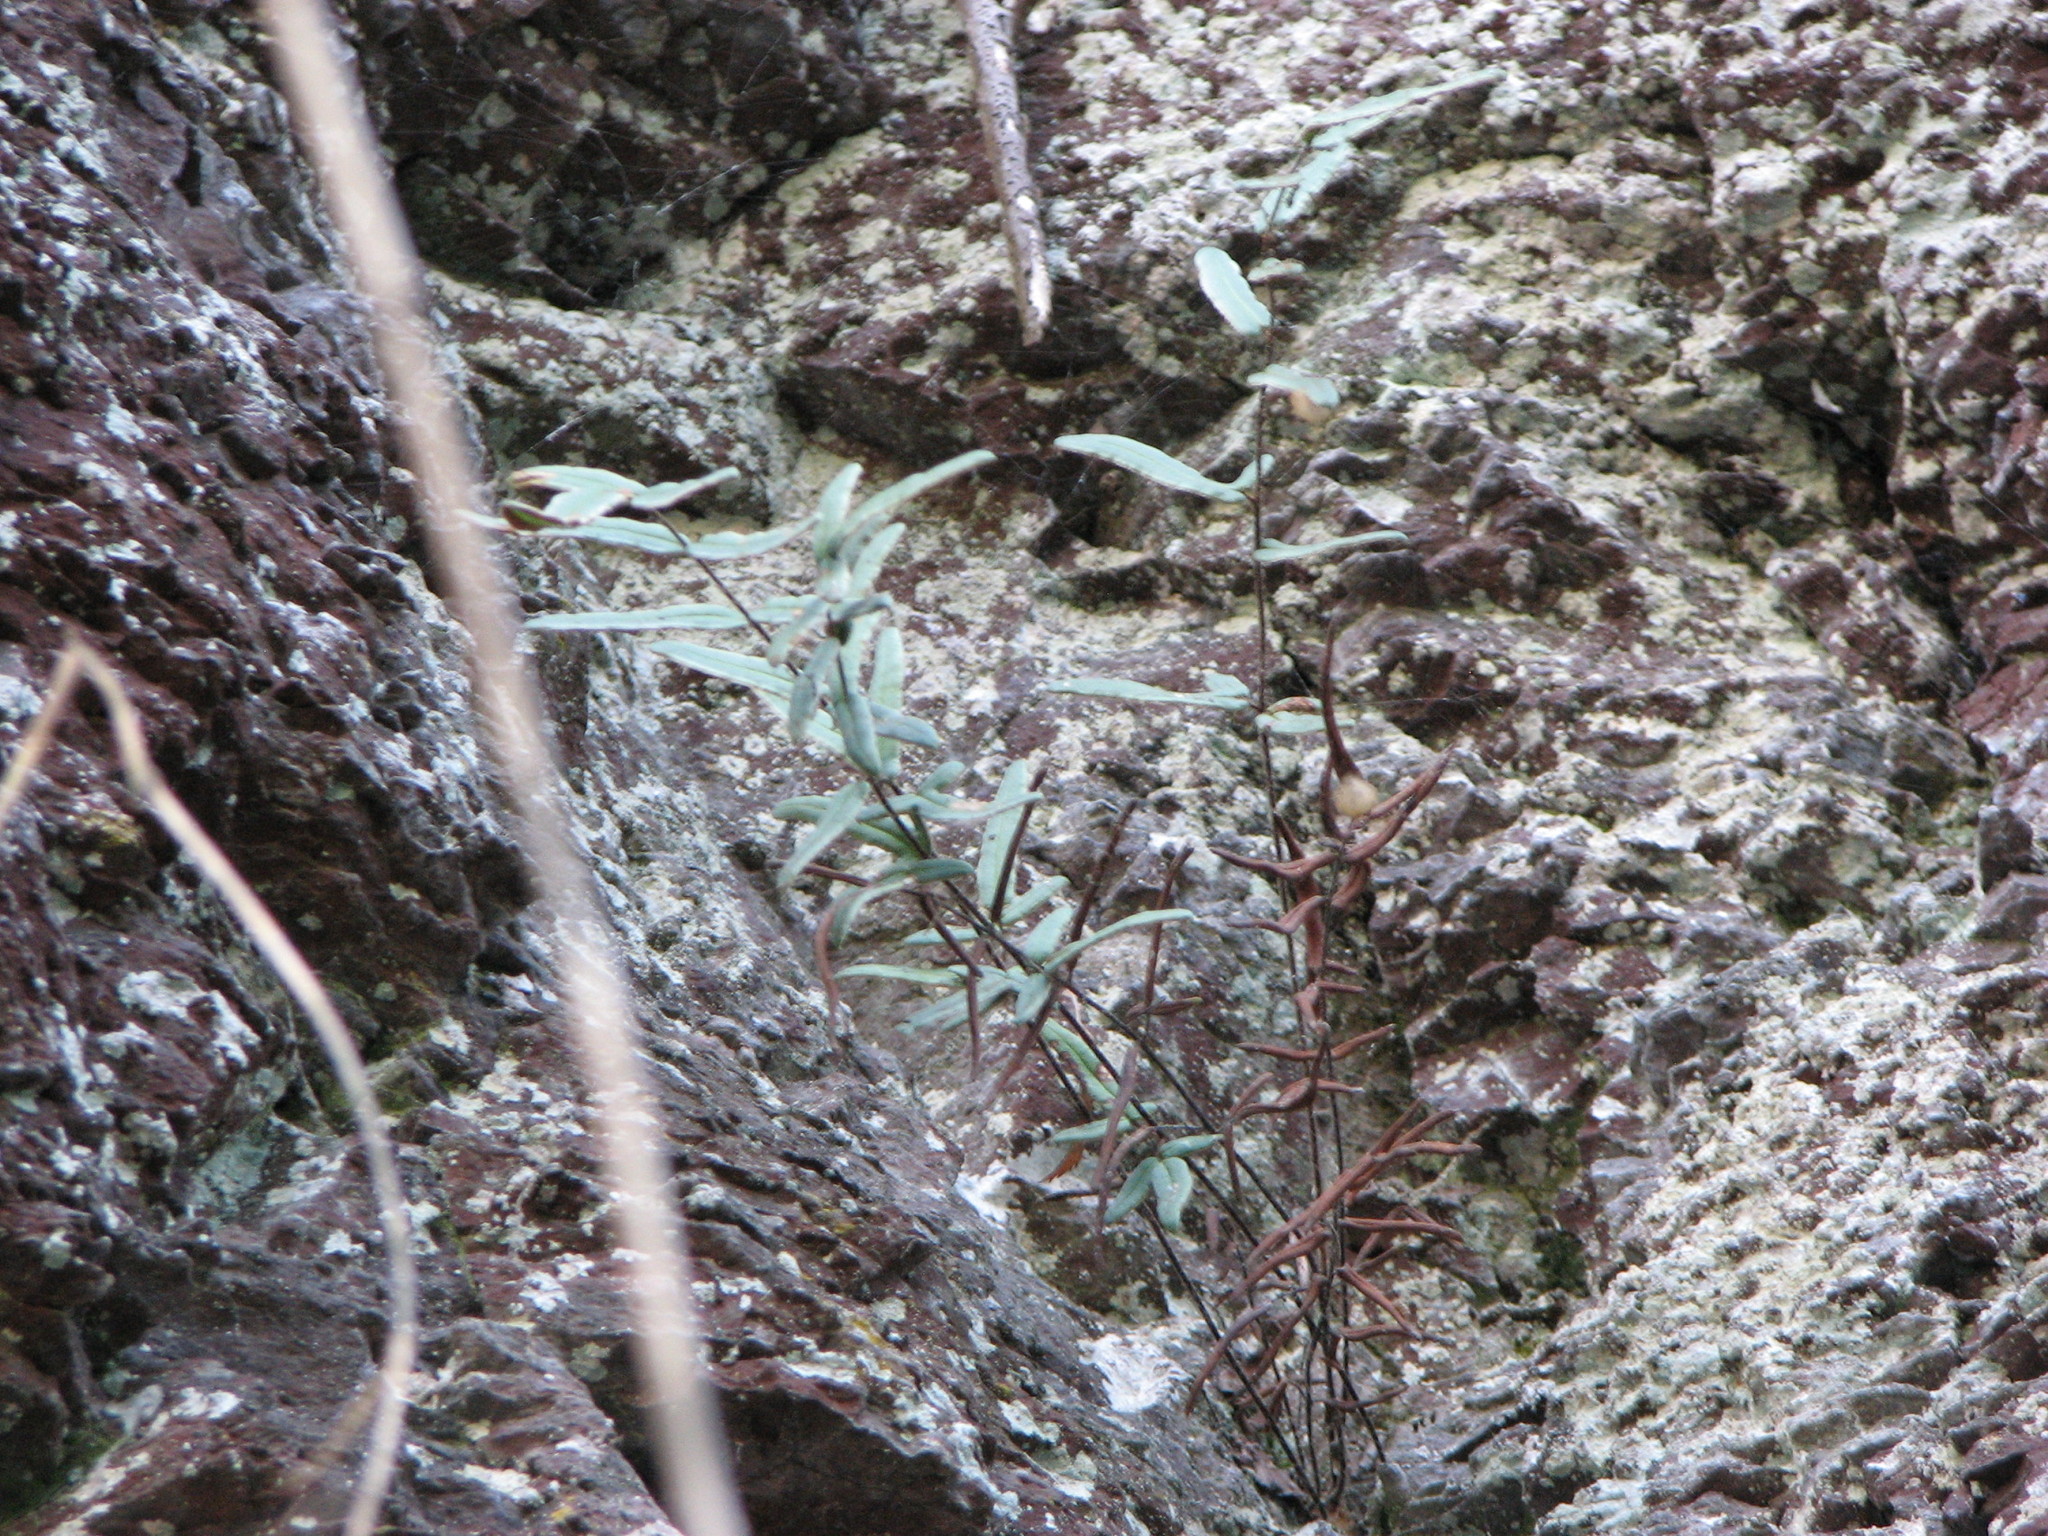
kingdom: Plantae
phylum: Tracheophyta
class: Polypodiopsida
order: Polypodiales
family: Pteridaceae
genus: Pellaea
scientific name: Pellaea atropurpurea
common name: Hairy cliffbrake
